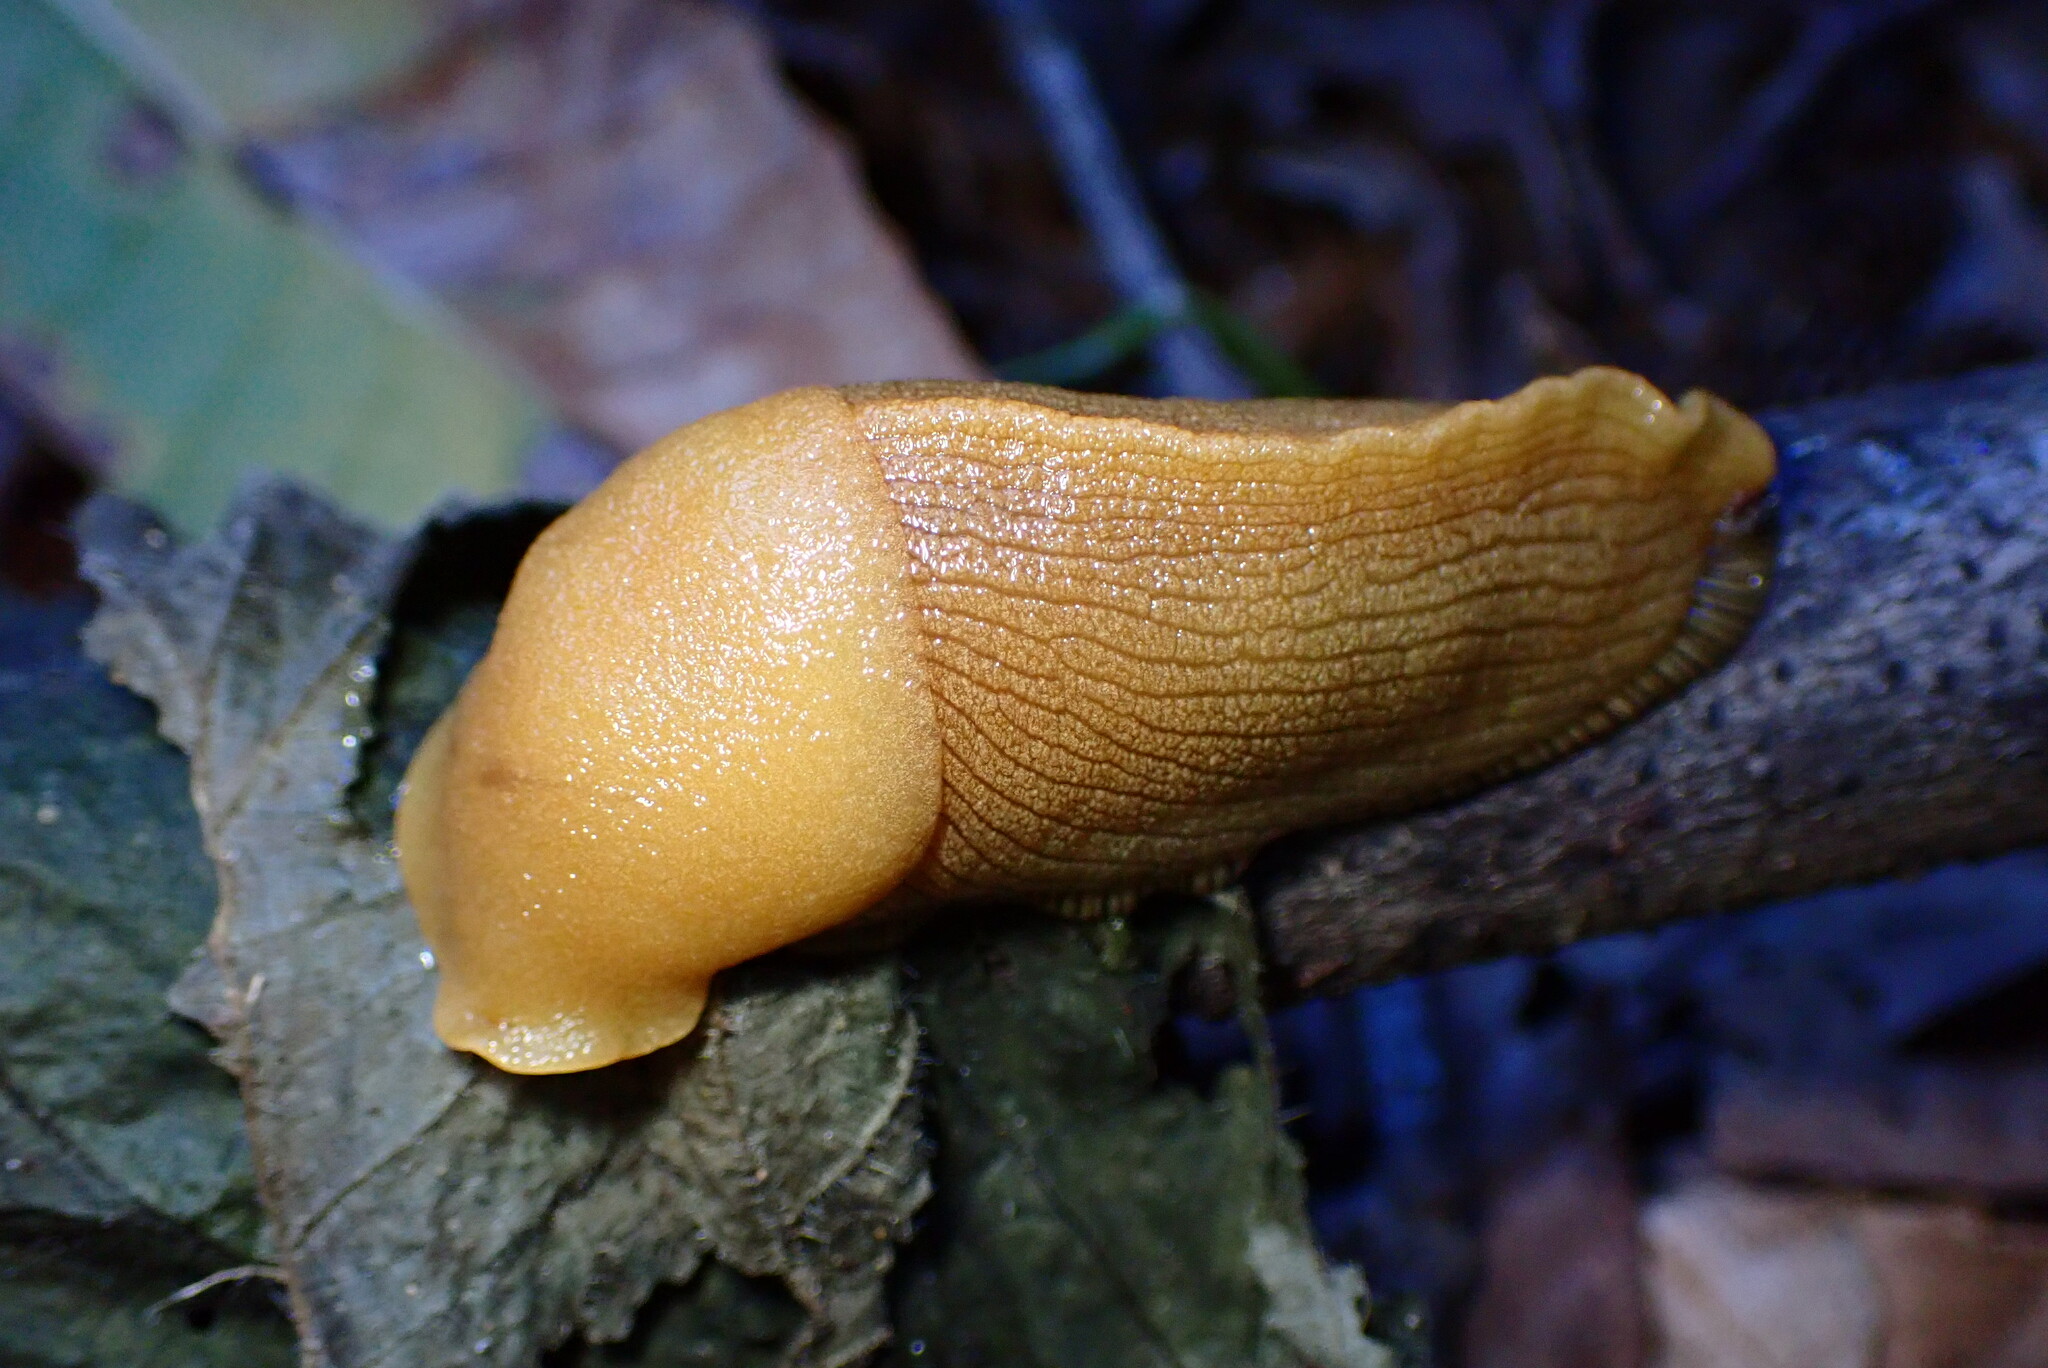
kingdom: Animalia
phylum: Mollusca
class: Gastropoda
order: Stylommatophora
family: Ariolimacidae
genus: Ariolimax
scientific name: Ariolimax buttoni
